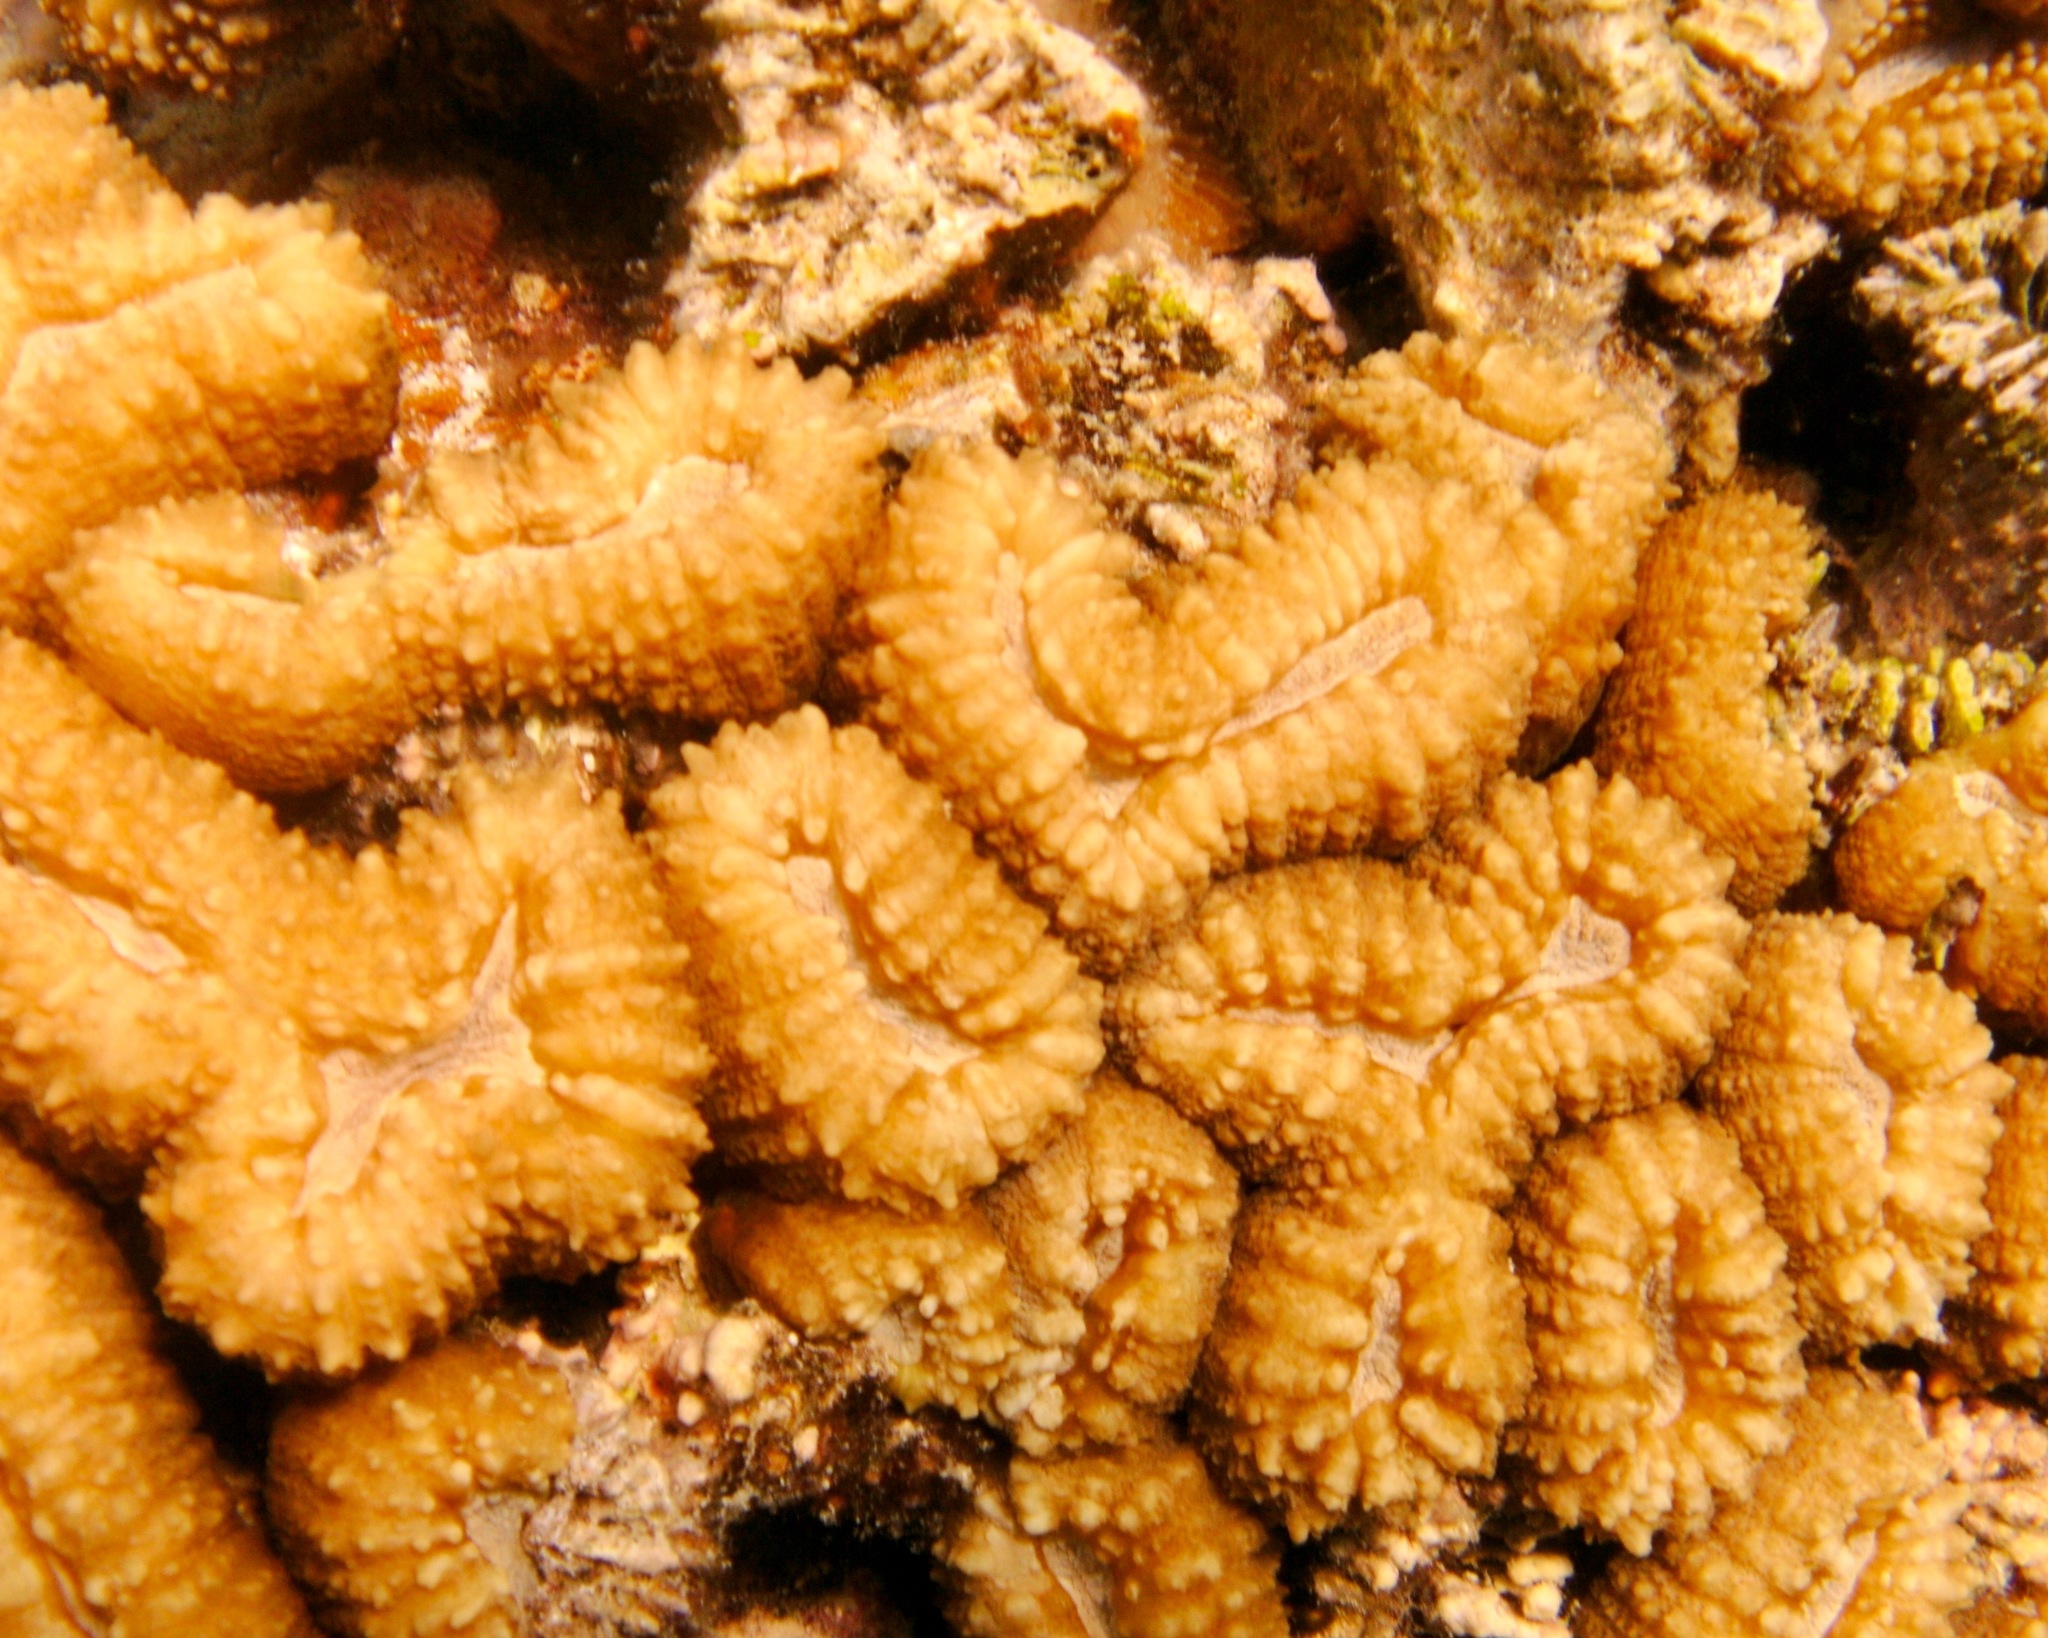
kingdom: Animalia
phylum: Cnidaria
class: Anthozoa
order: Scleractinia
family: Lobophylliidae
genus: Lobophyllia
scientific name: Lobophyllia corymbosa
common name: Lobed cactus coral
